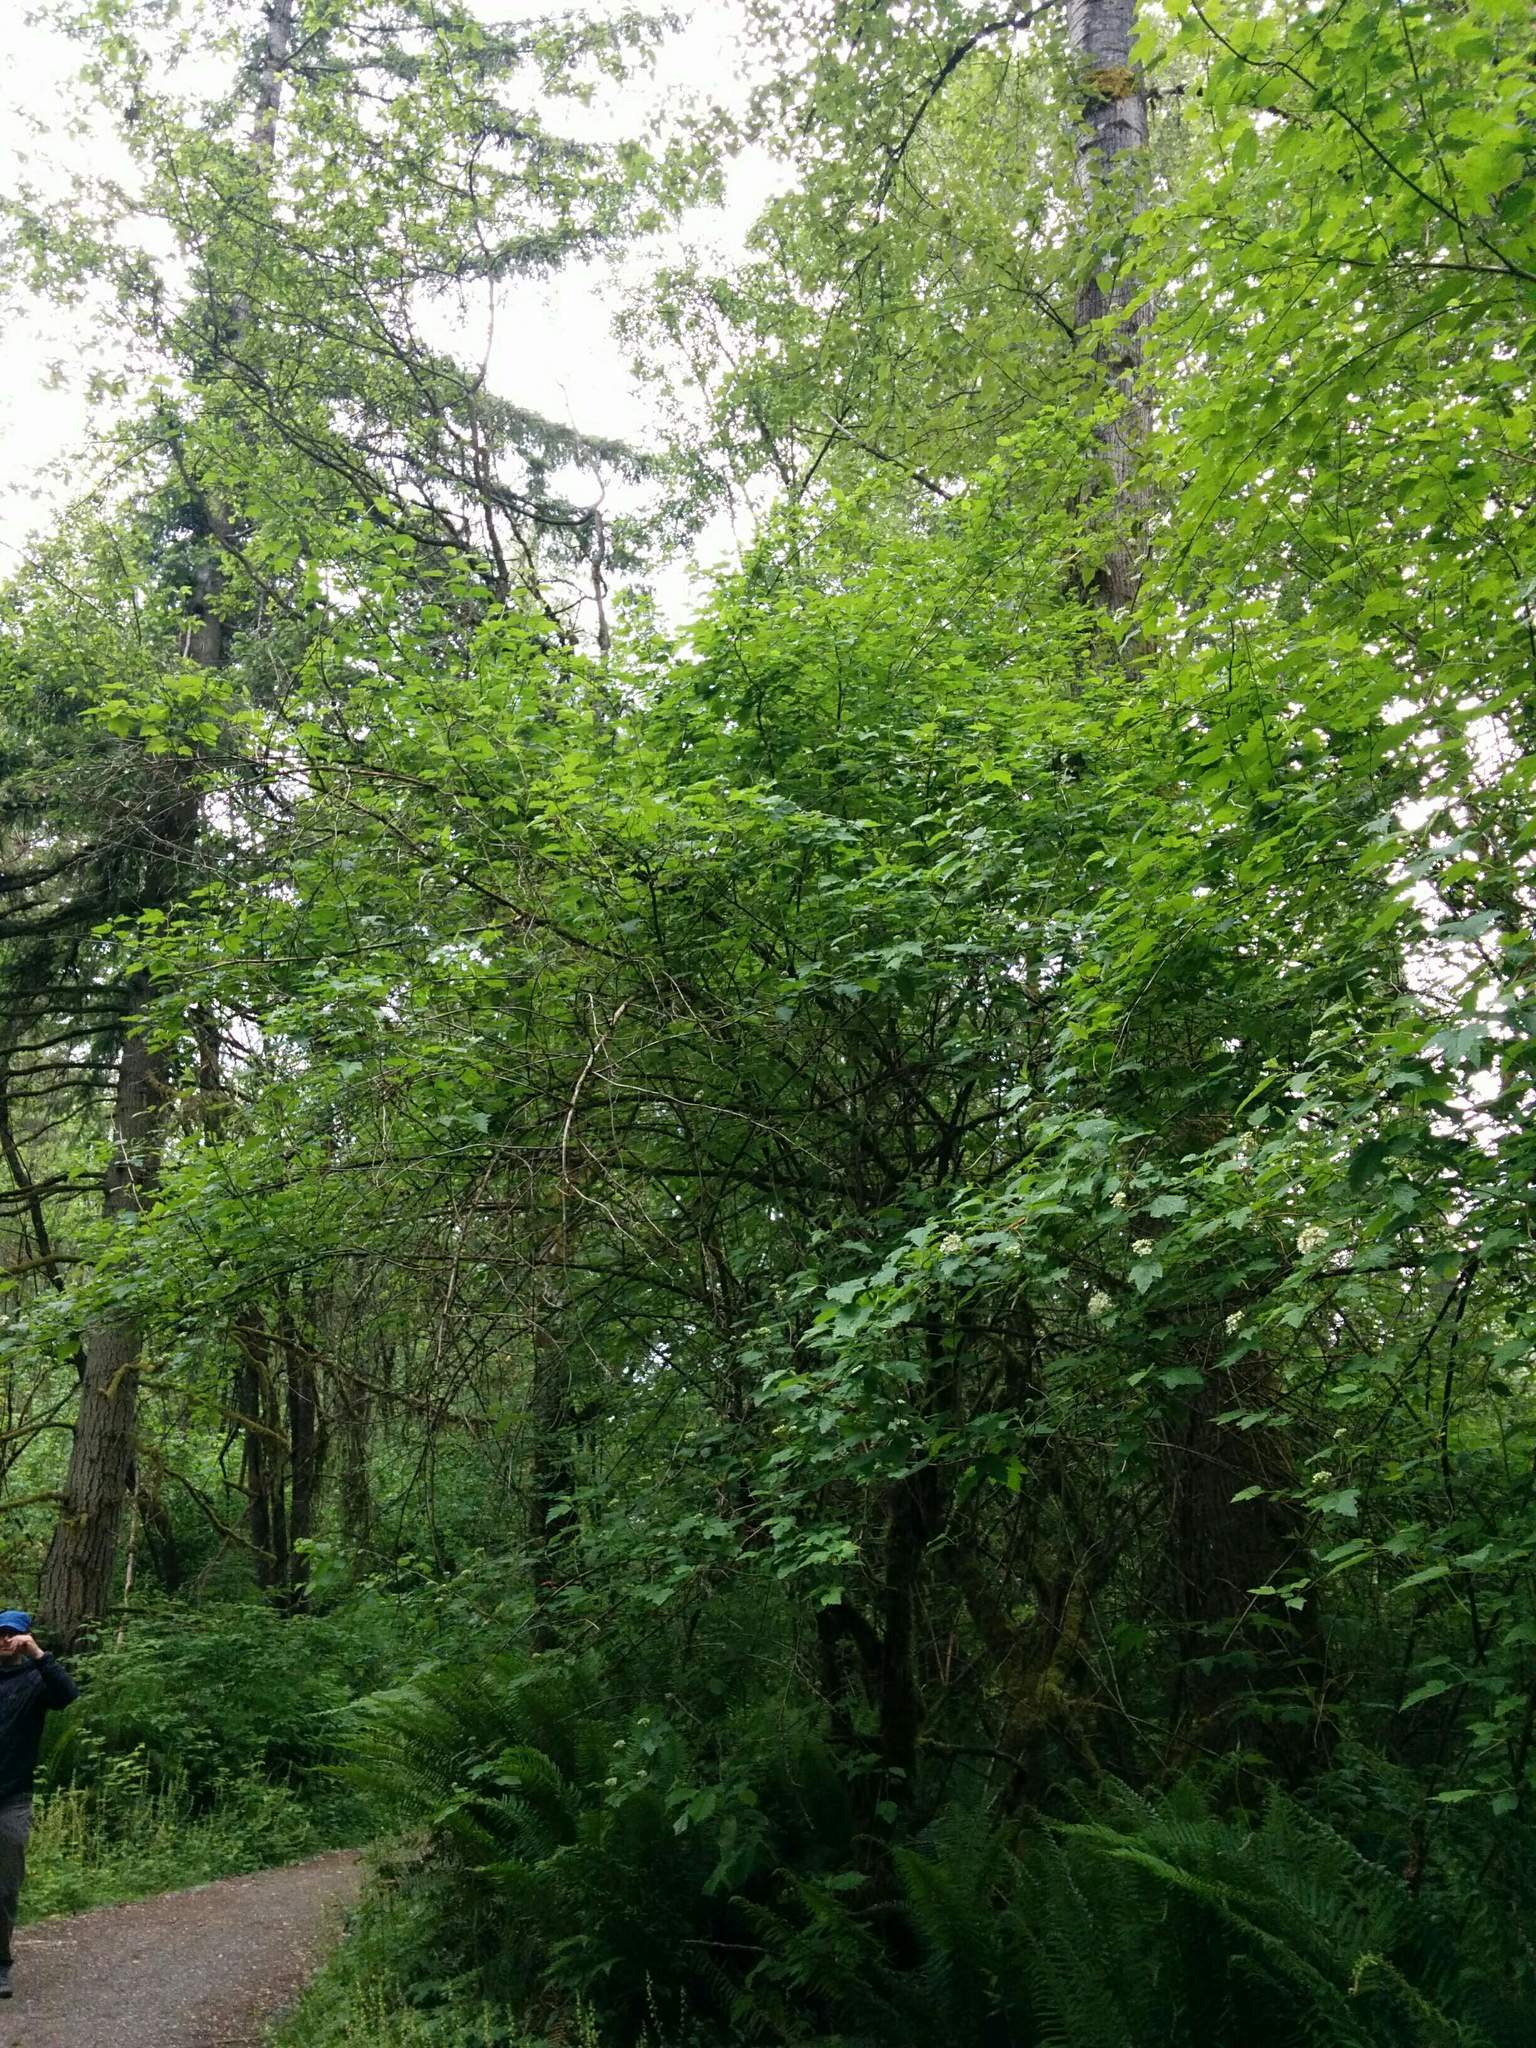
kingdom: Plantae
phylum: Tracheophyta
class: Magnoliopsida
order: Rosales
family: Rosaceae
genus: Physocarpus
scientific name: Physocarpus capitatus
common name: Pacific ninebark
